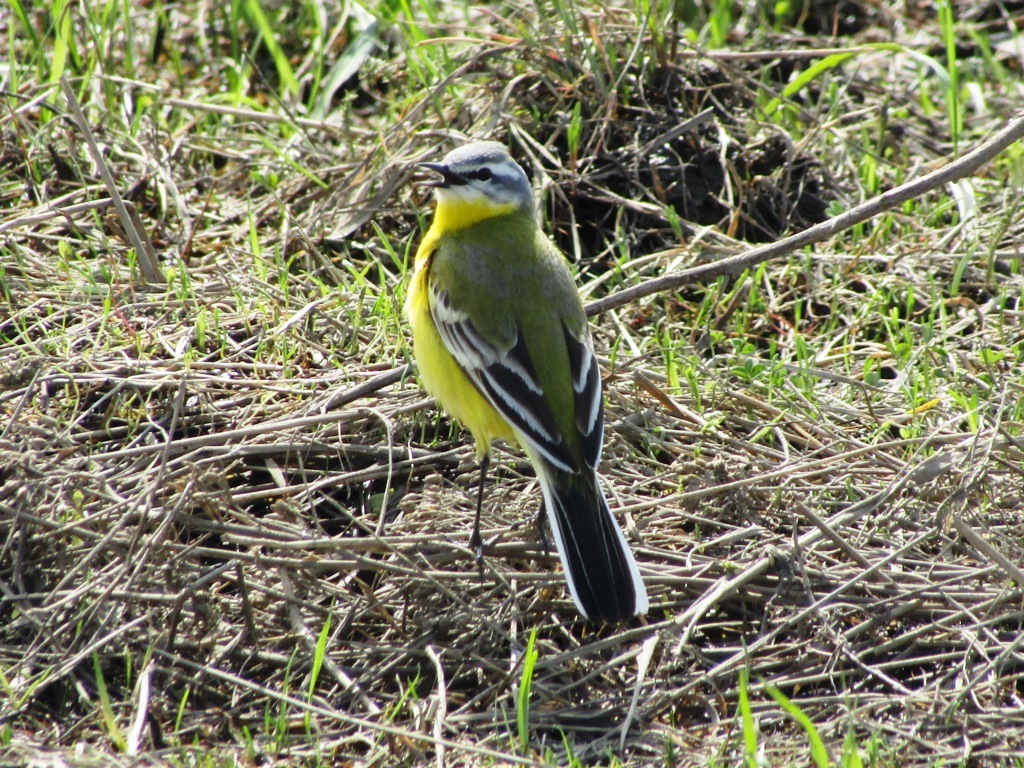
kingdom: Animalia
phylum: Chordata
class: Aves
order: Passeriformes
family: Motacillidae
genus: Motacilla
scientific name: Motacilla flava
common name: Western yellow wagtail
